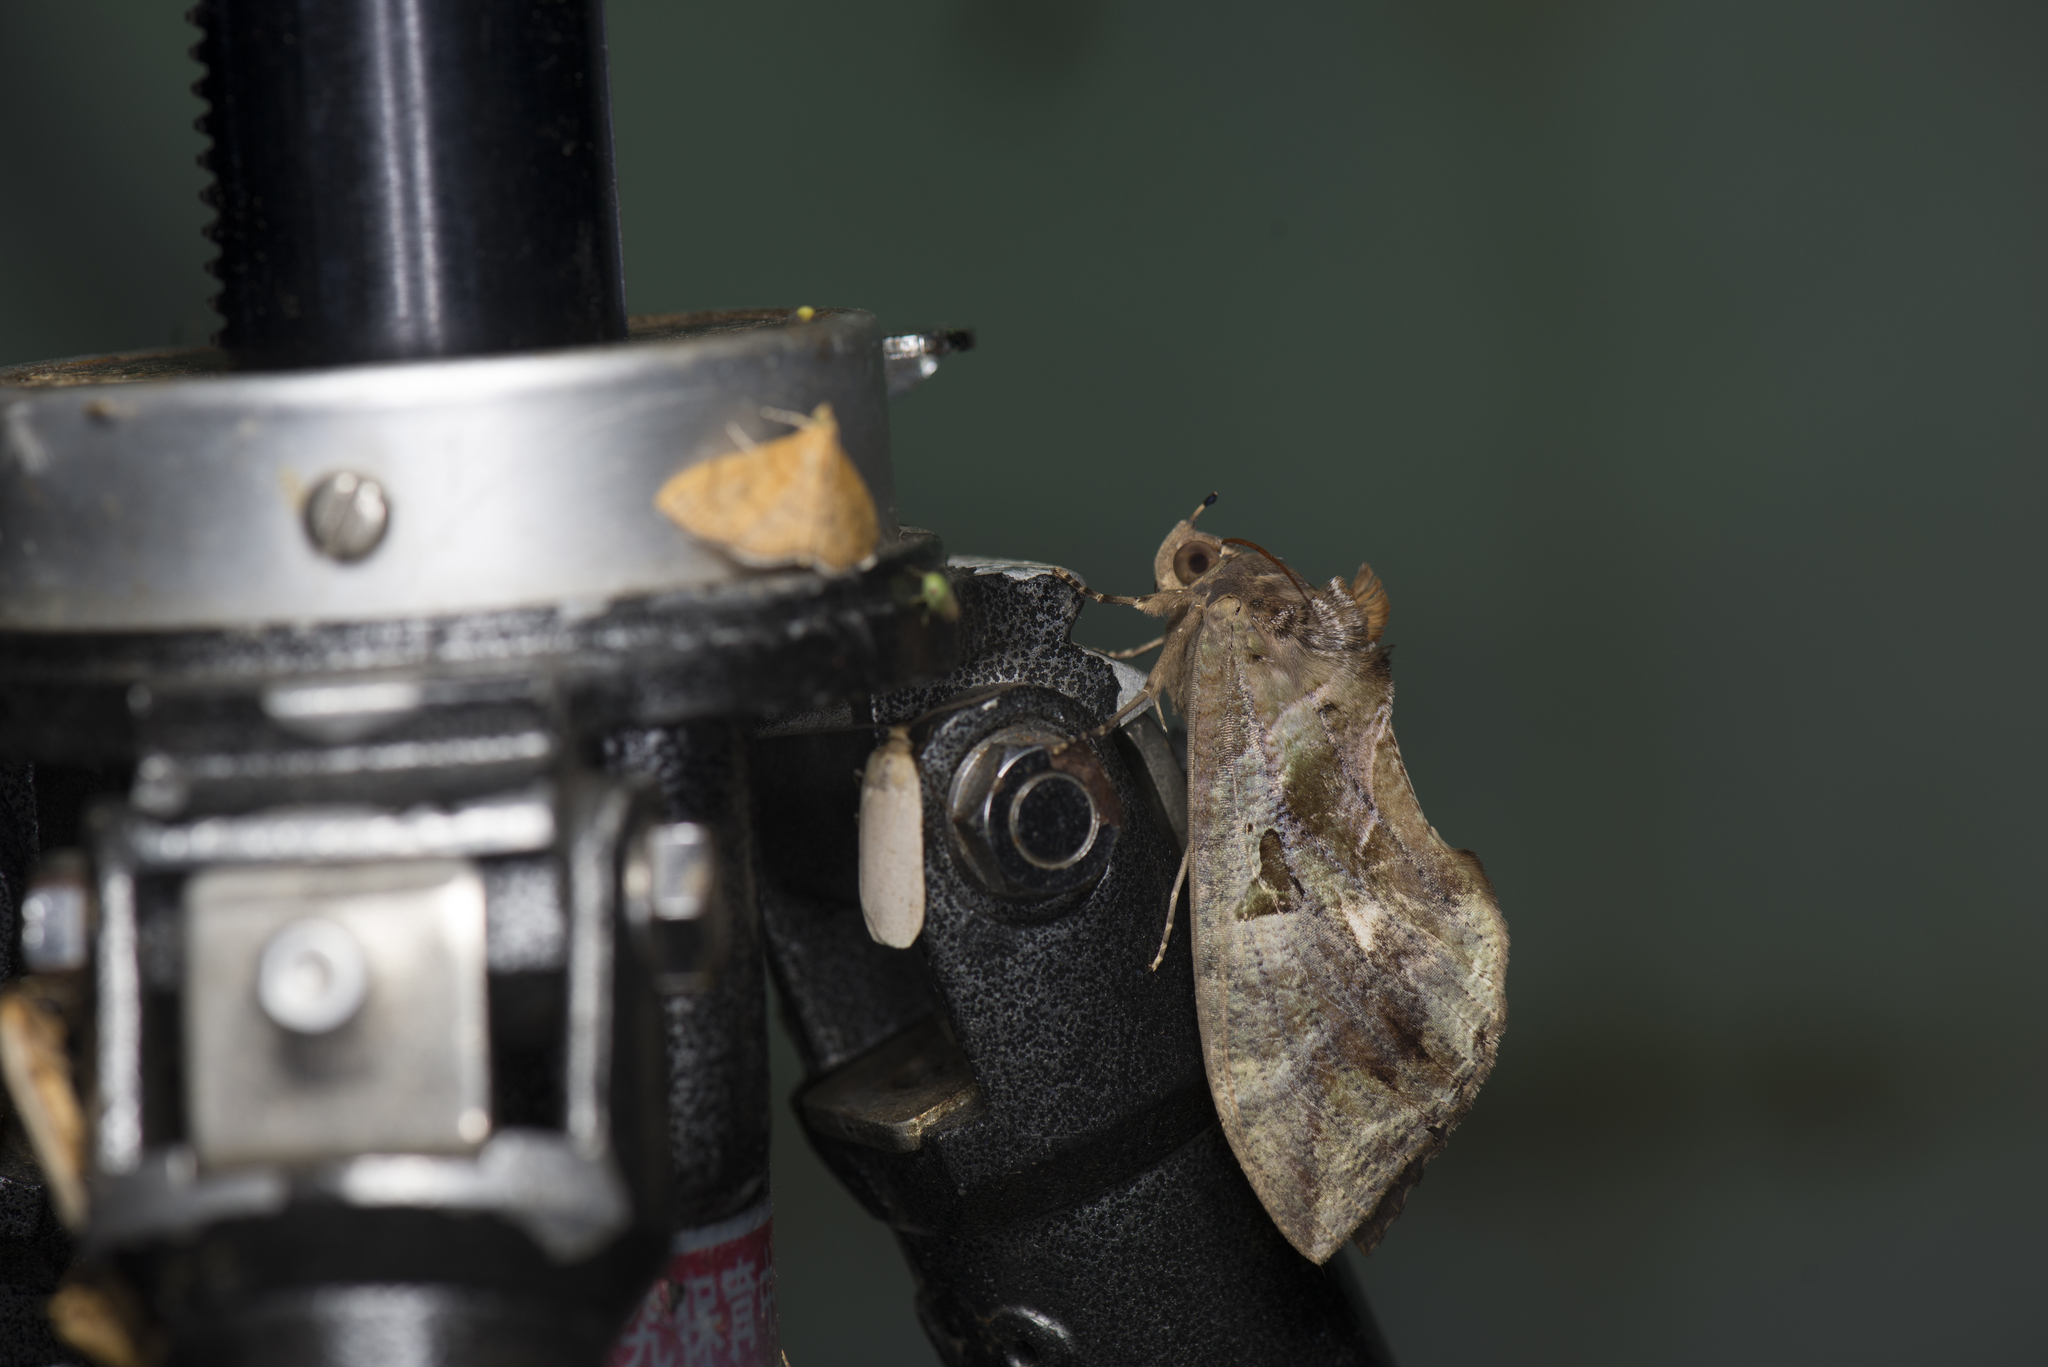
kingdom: Animalia
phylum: Arthropoda
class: Insecta
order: Lepidoptera
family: Erebidae
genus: Eudocima
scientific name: Eudocima phalonia
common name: Wasp
